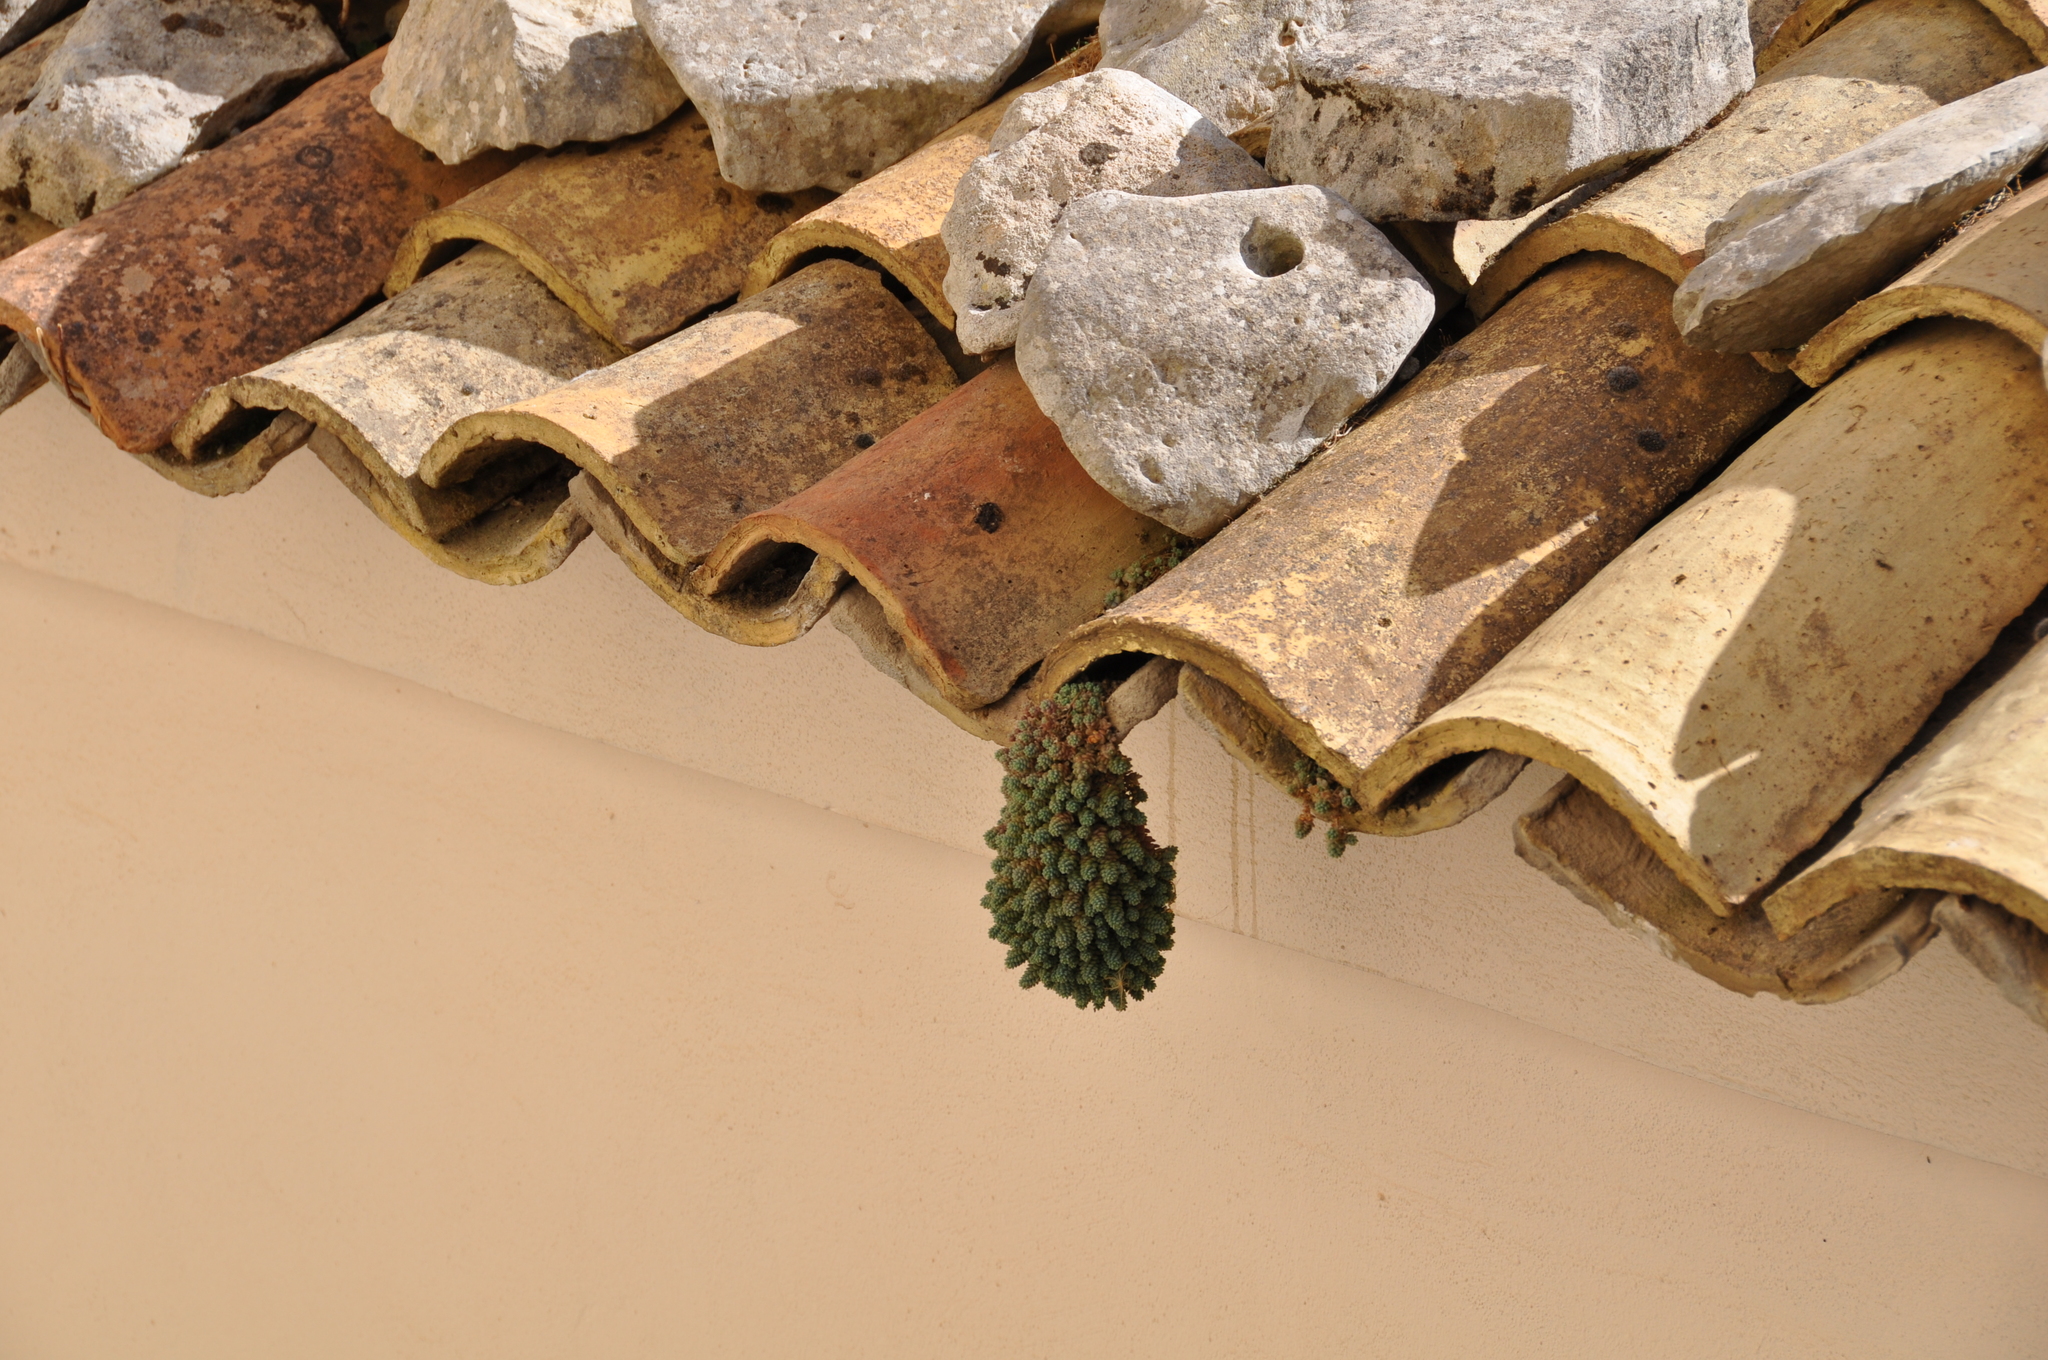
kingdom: Plantae
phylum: Tracheophyta
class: Magnoliopsida
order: Saxifragales
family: Crassulaceae
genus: Sedum
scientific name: Sedum dasyphyllum
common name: Thick-leaf stonecrop
